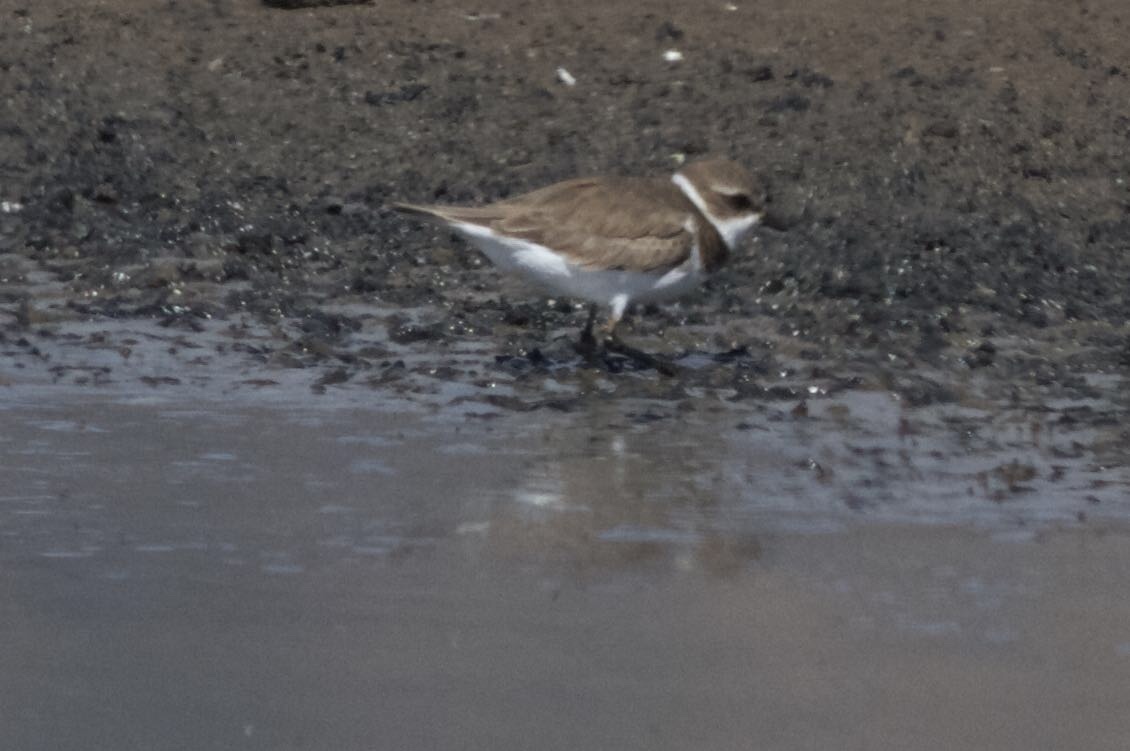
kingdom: Animalia
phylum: Chordata
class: Aves
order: Charadriiformes
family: Charadriidae
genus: Charadrius
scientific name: Charadrius semipalmatus
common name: Semipalmated plover
